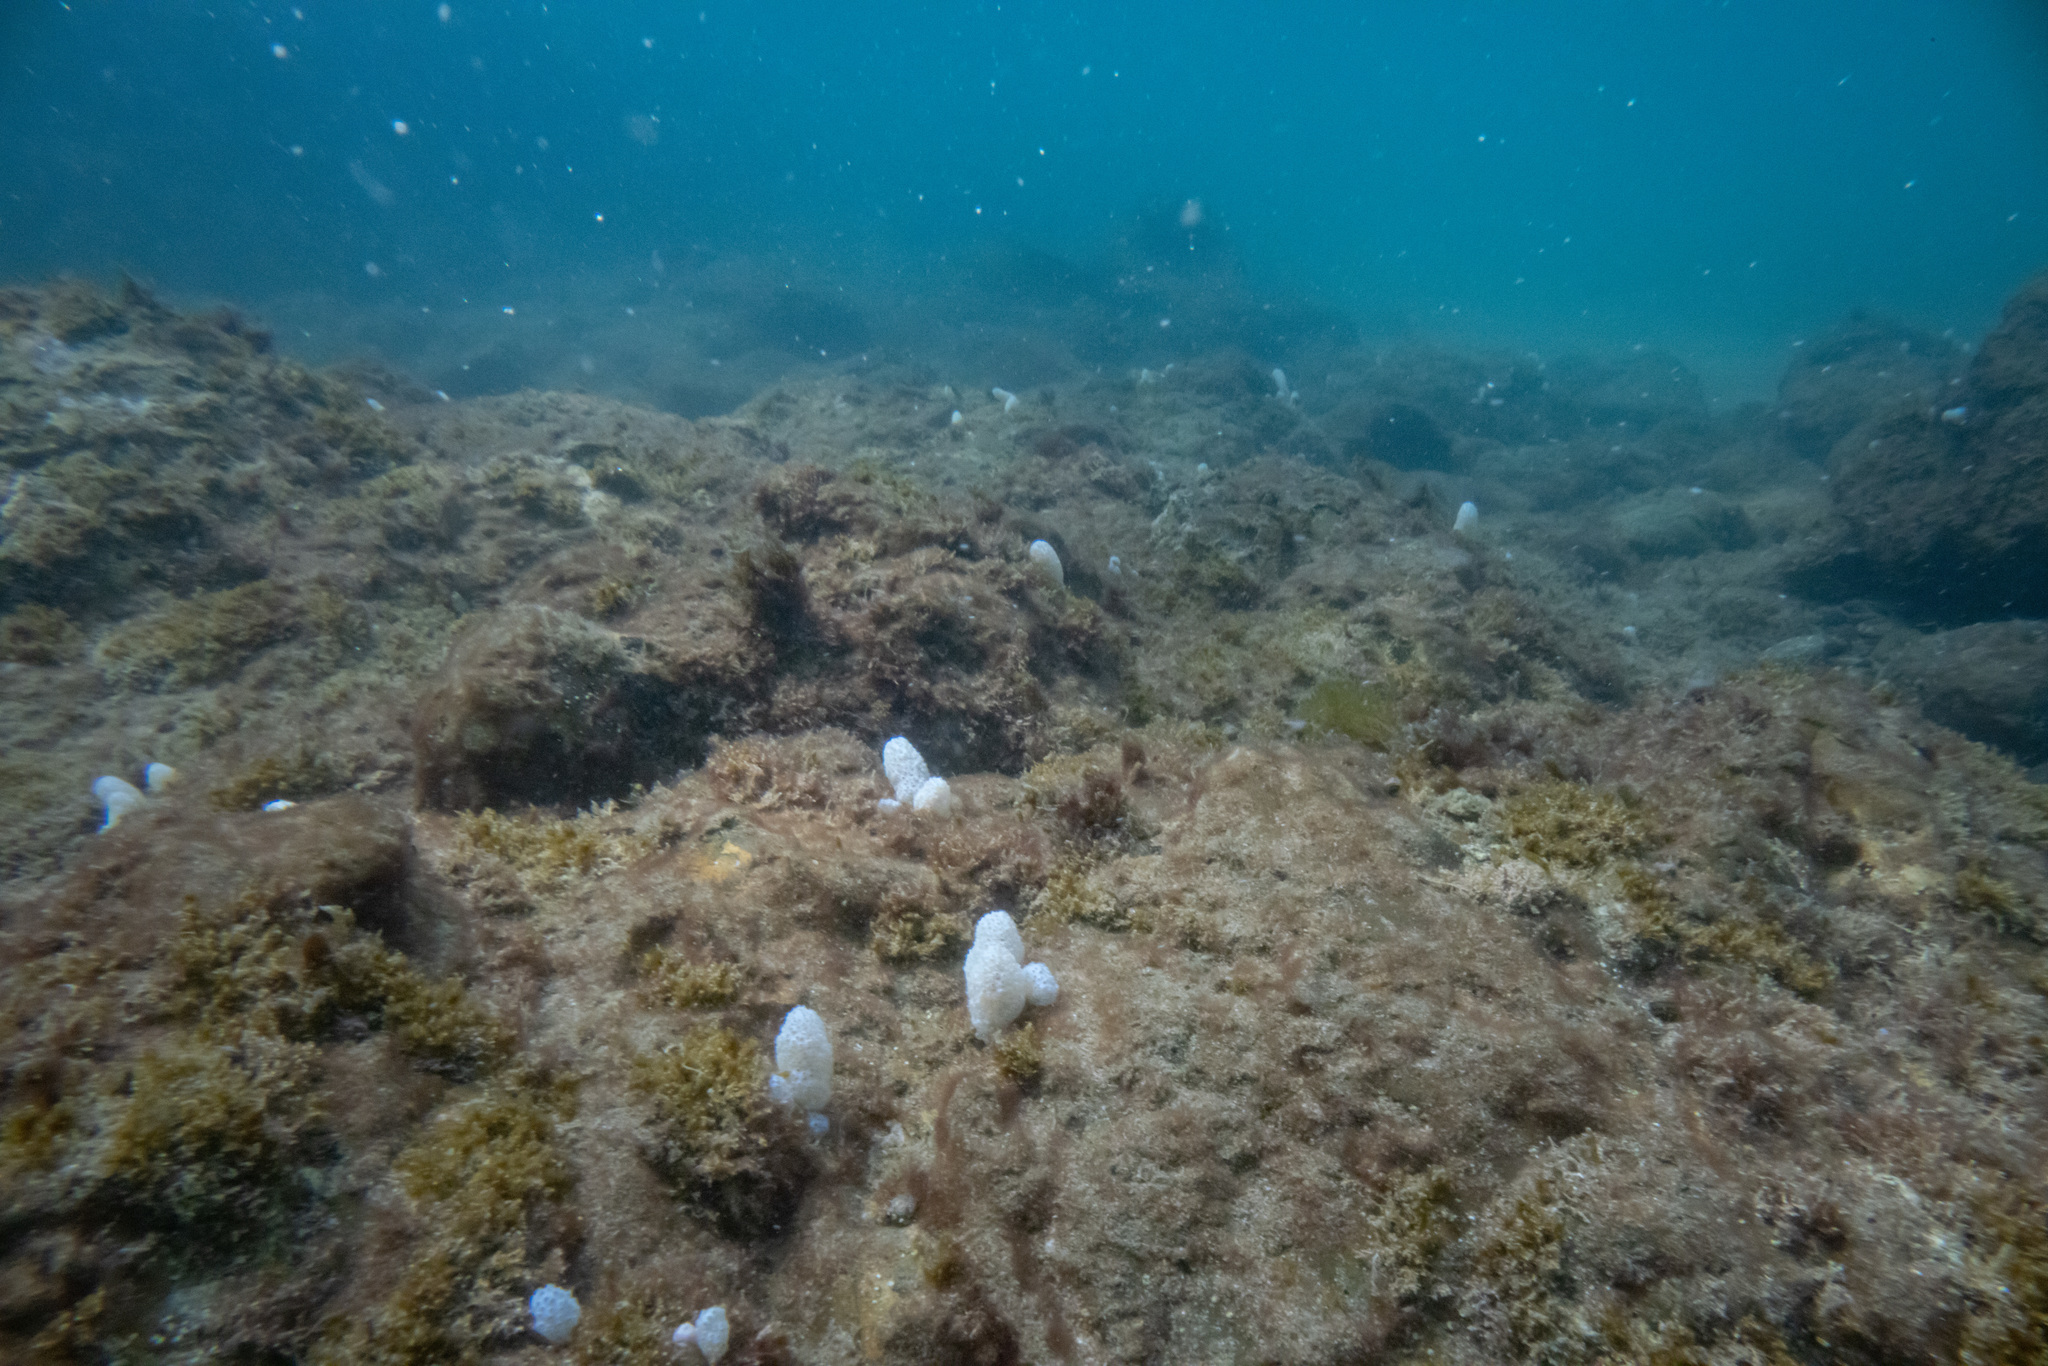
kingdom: Animalia
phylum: Chordata
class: Ascidiacea
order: Aplousobranchia
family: Polycitoridae
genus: Eudistoma
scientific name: Eudistoma elongatum
